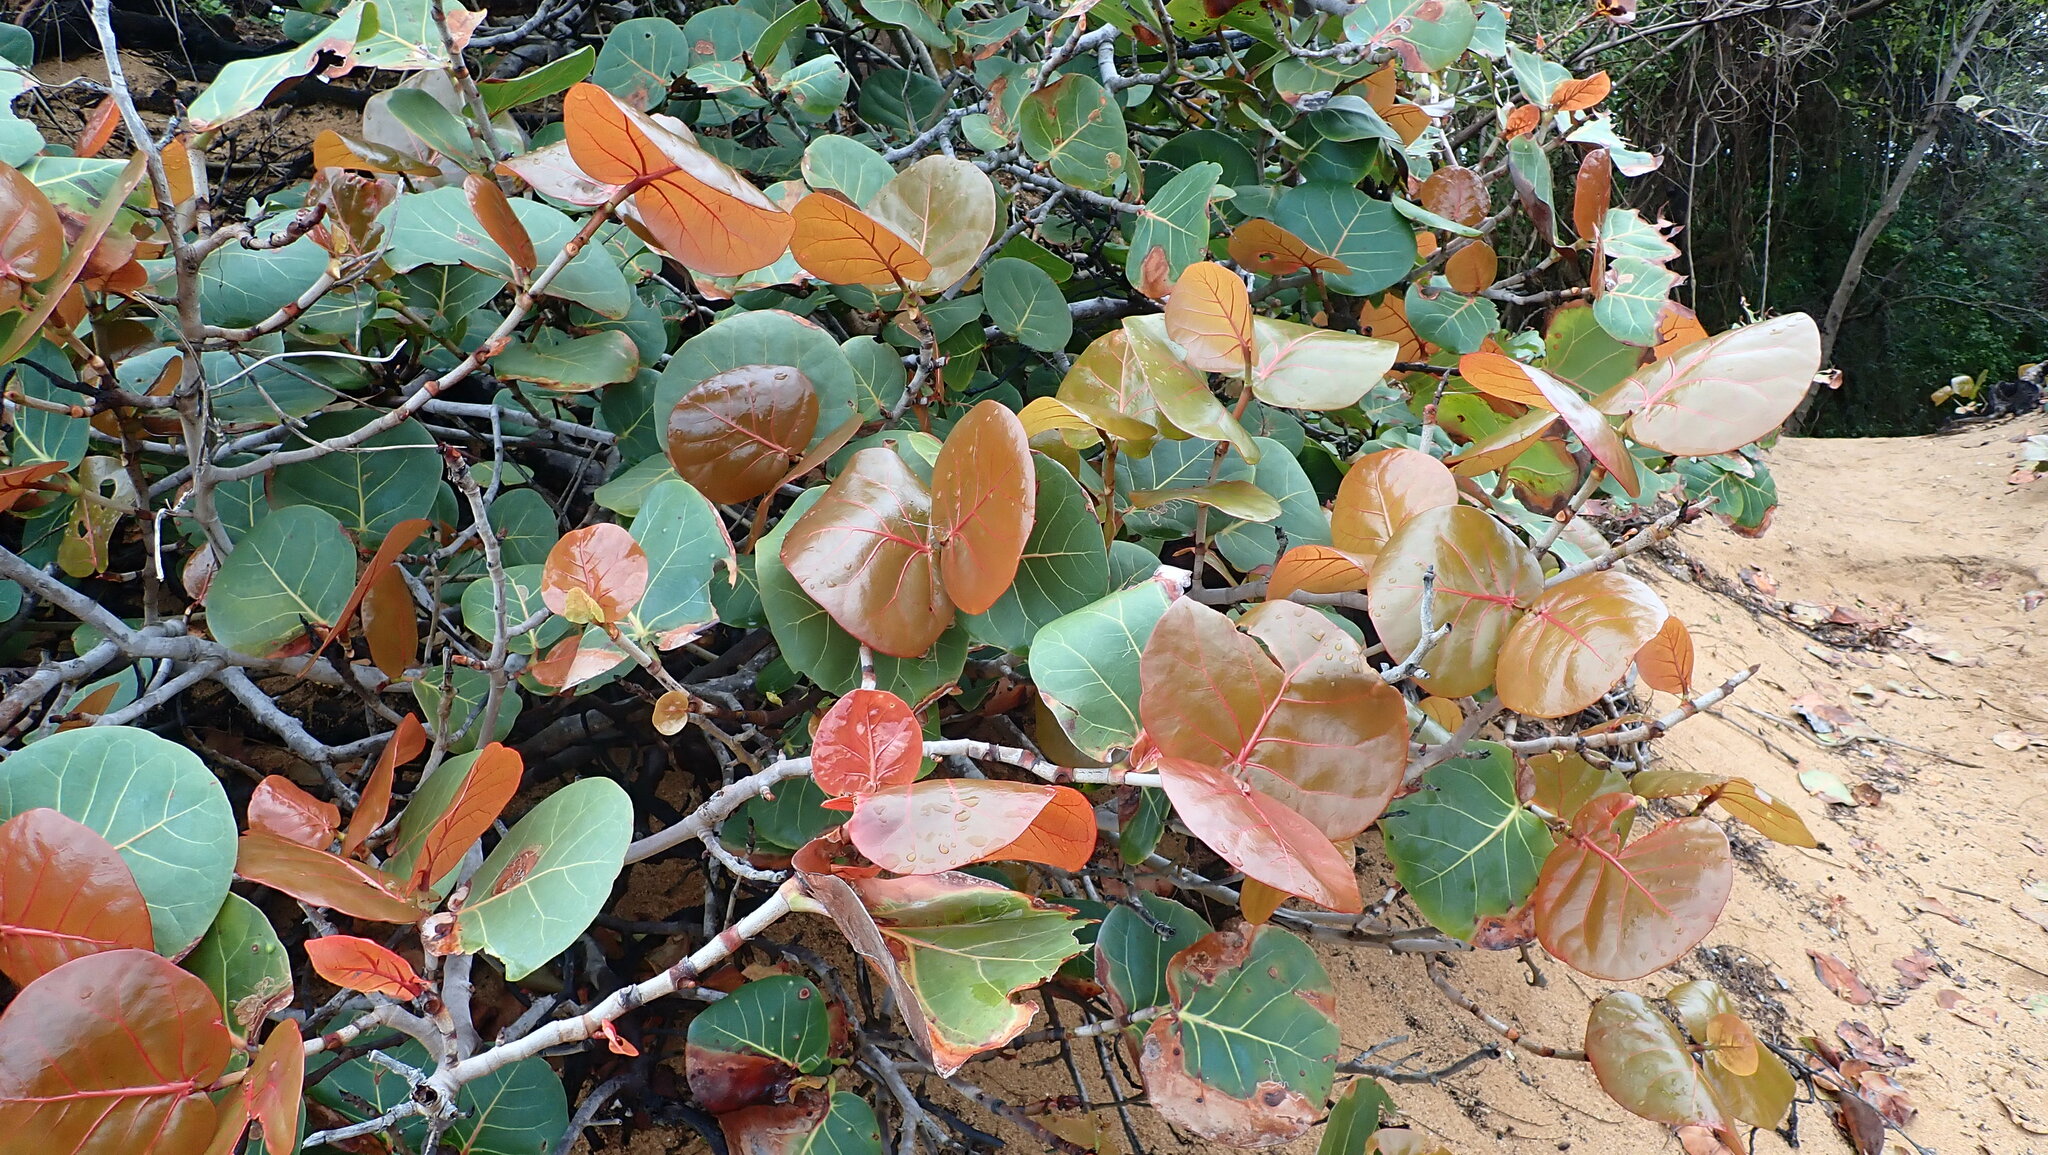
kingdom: Plantae
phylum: Tracheophyta
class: Magnoliopsida
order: Caryophyllales
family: Polygonaceae
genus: Coccoloba
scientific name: Coccoloba uvifera
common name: Seagrape
